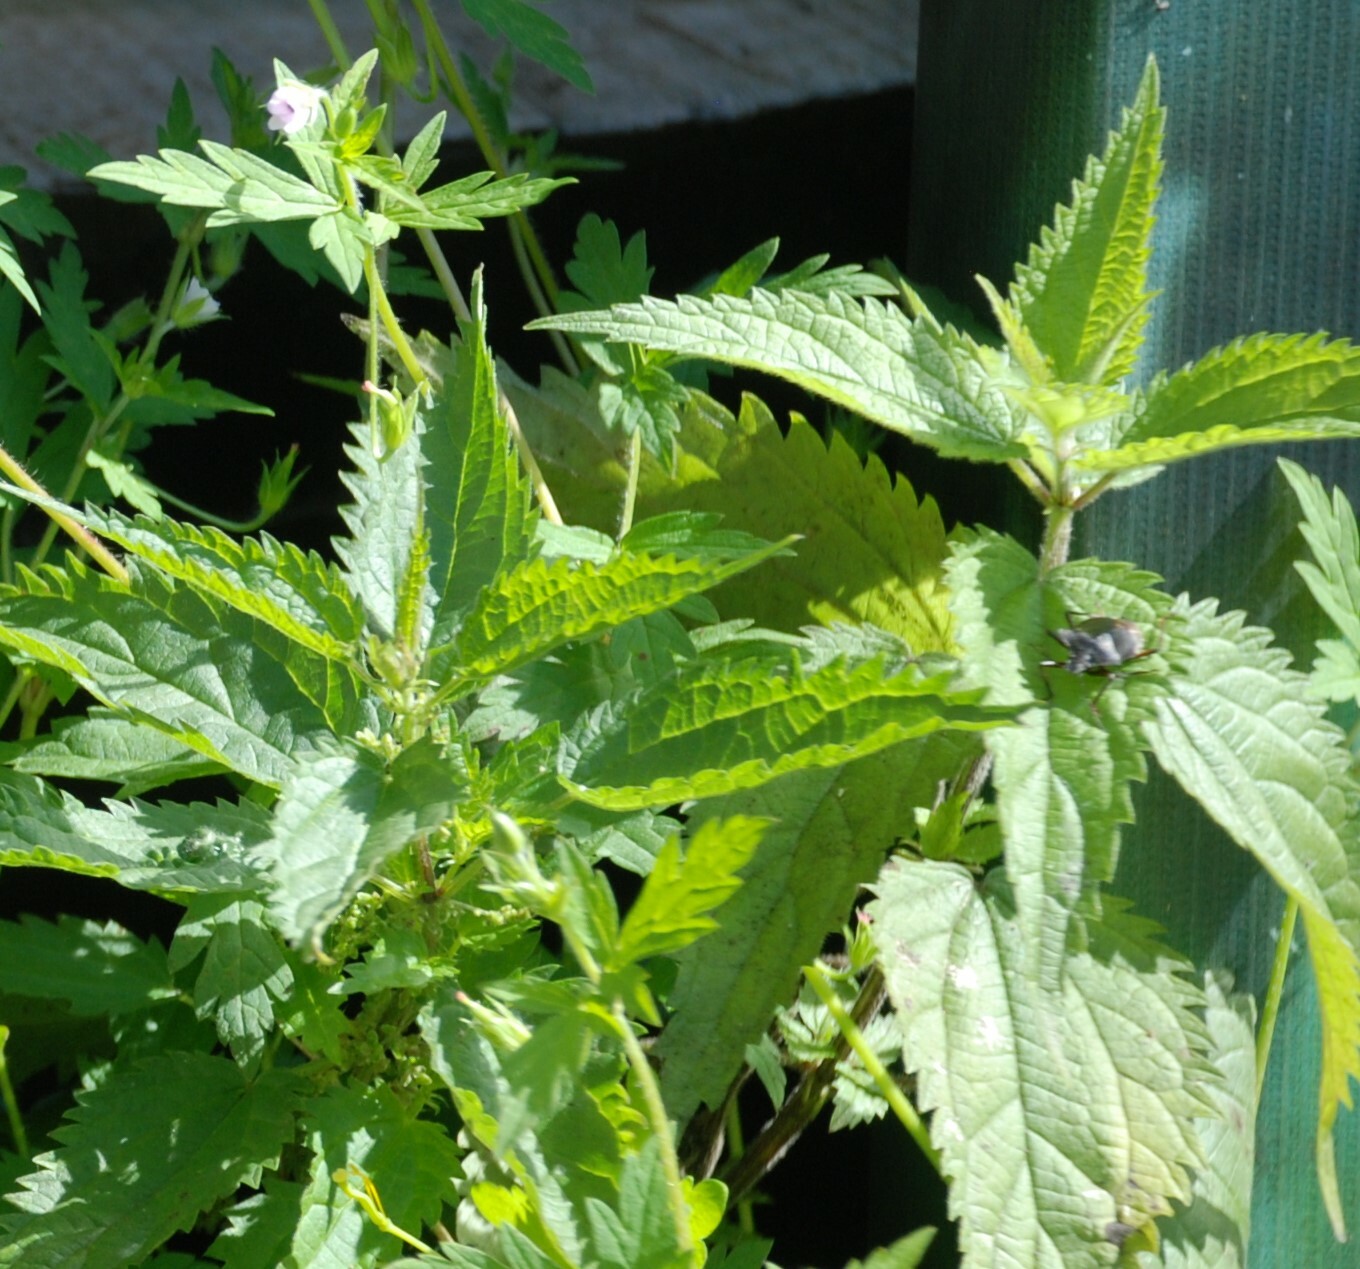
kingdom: Plantae
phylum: Tracheophyta
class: Magnoliopsida
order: Rosales
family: Urticaceae
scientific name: Urticaceae
